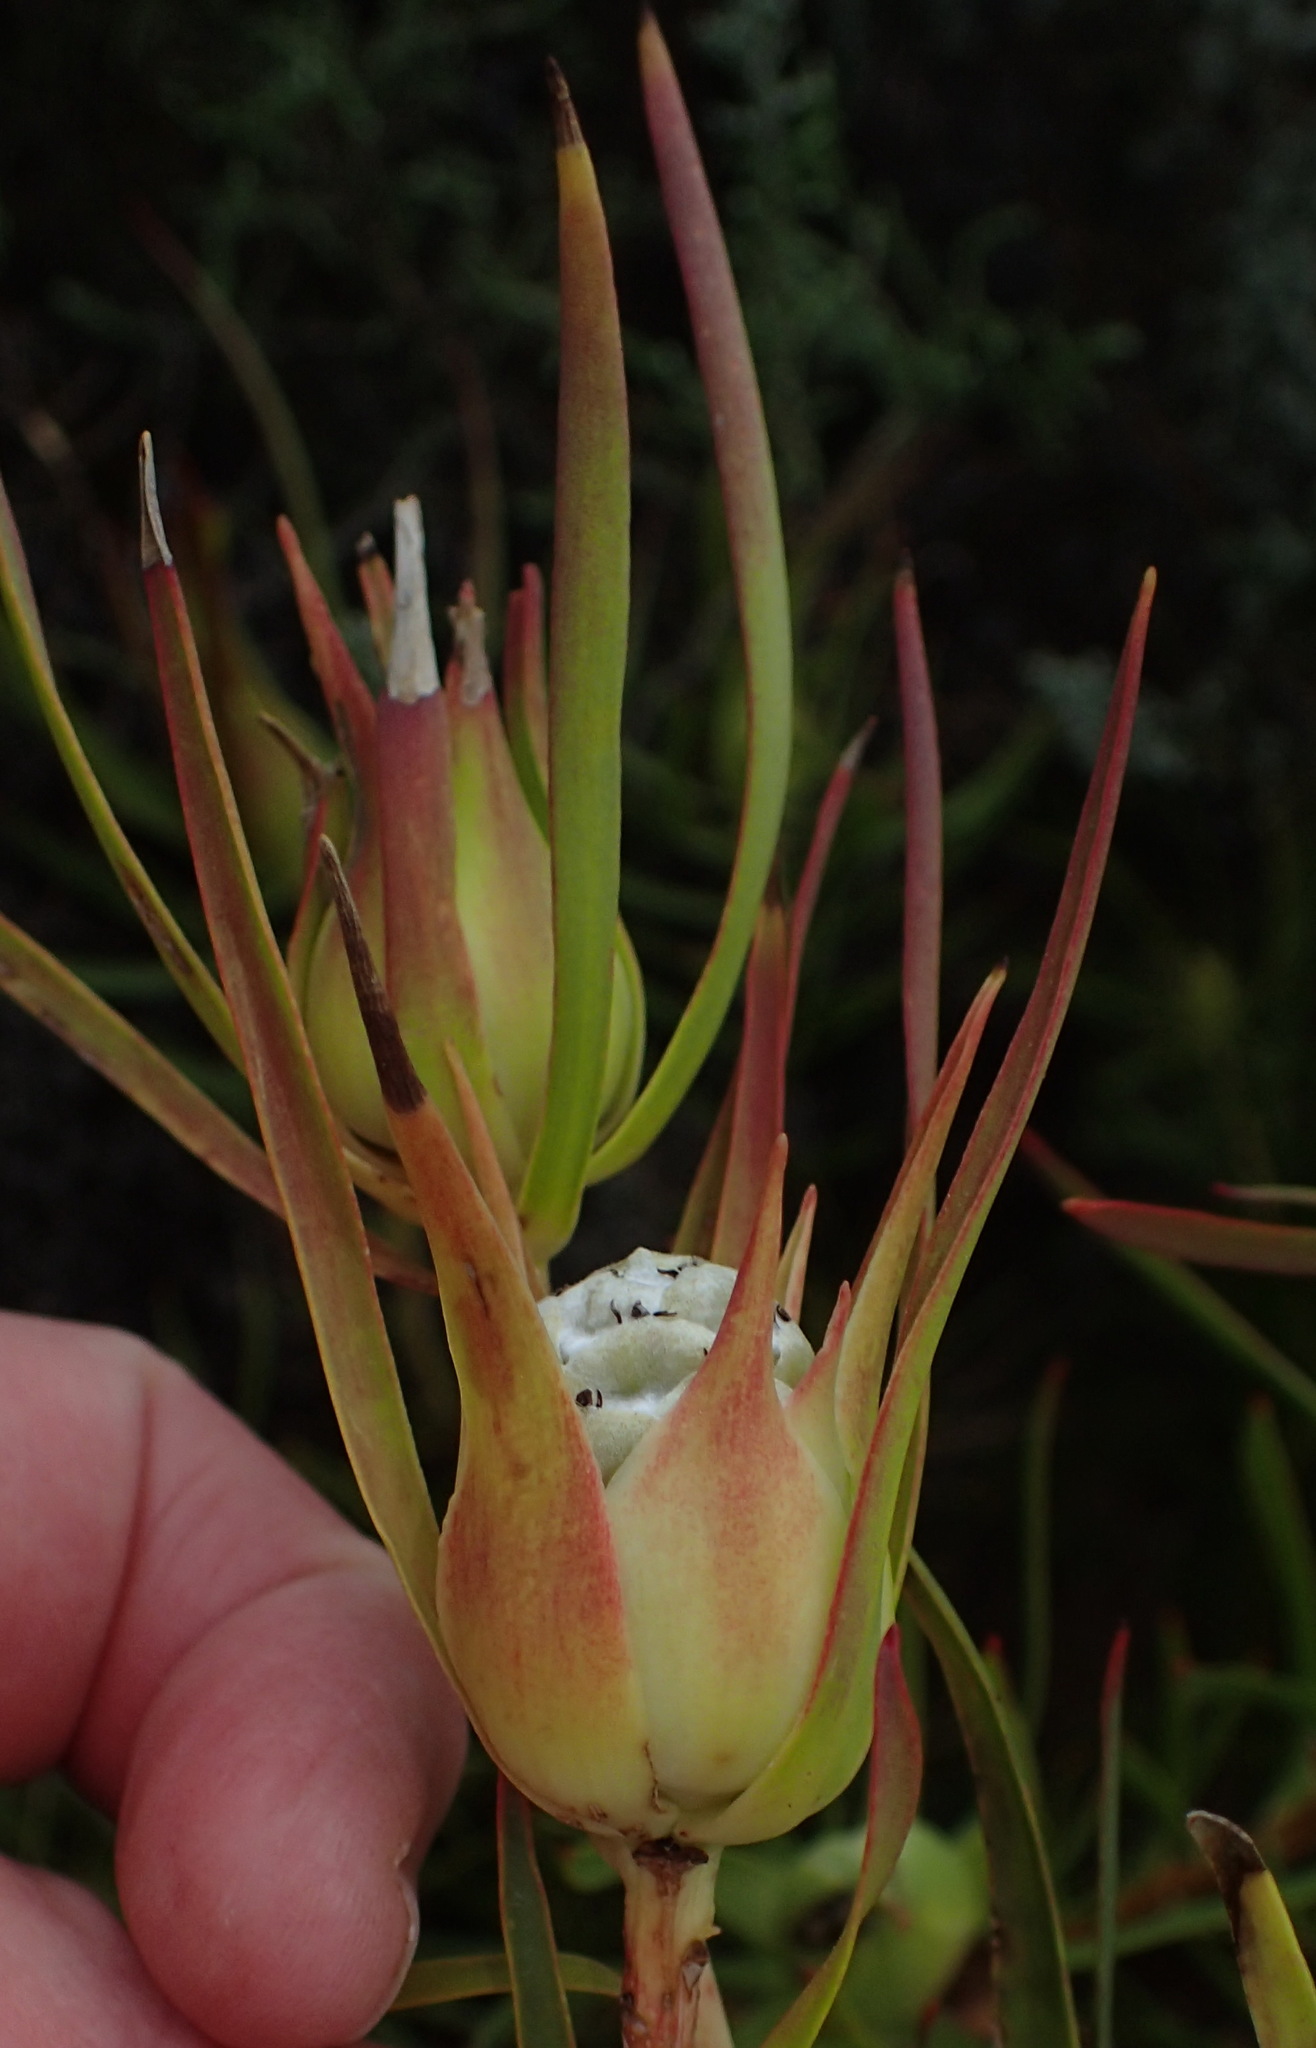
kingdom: Plantae
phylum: Tracheophyta
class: Magnoliopsida
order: Proteales
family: Proteaceae
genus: Leucadendron
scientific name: Leucadendron salignum
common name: Common sunshine conebush
